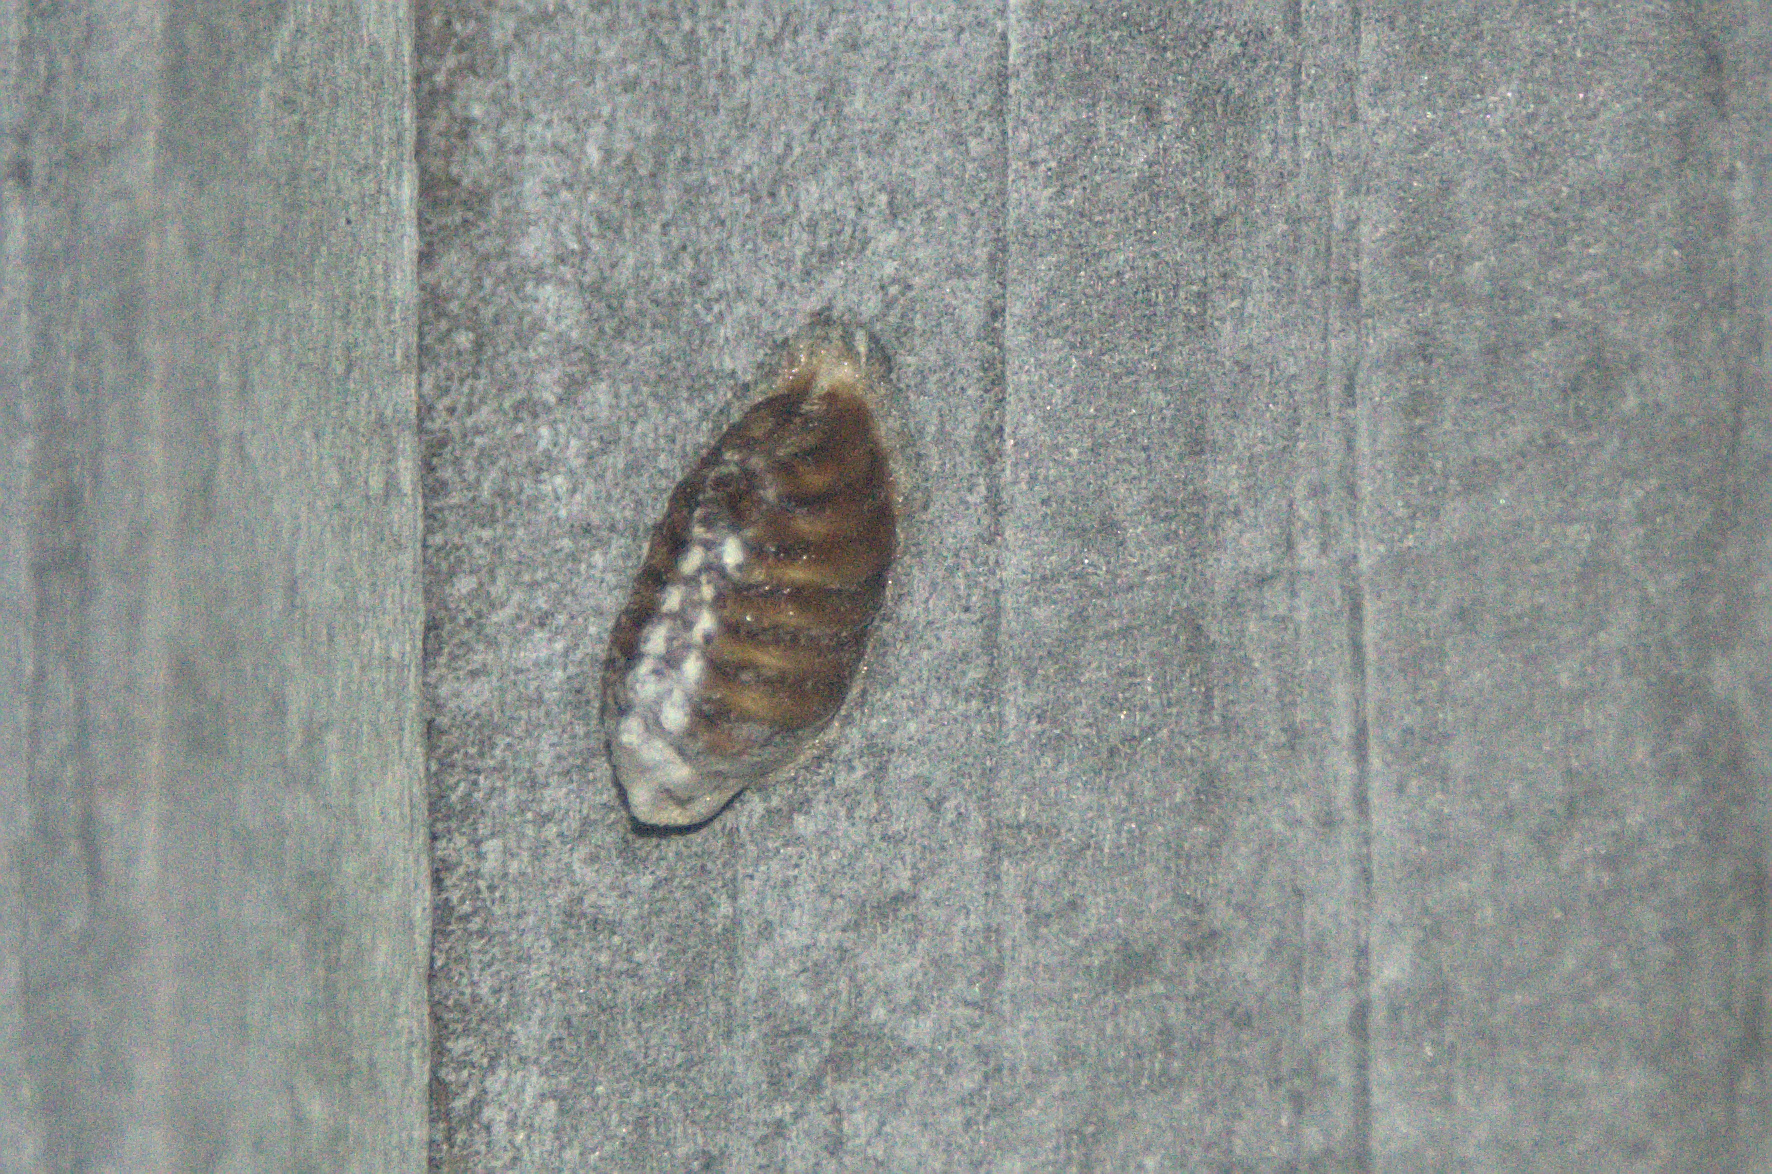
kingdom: Animalia
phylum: Arthropoda
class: Insecta
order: Mantodea
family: Mantidae
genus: Orthodera
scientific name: Orthodera novaezealandiae
